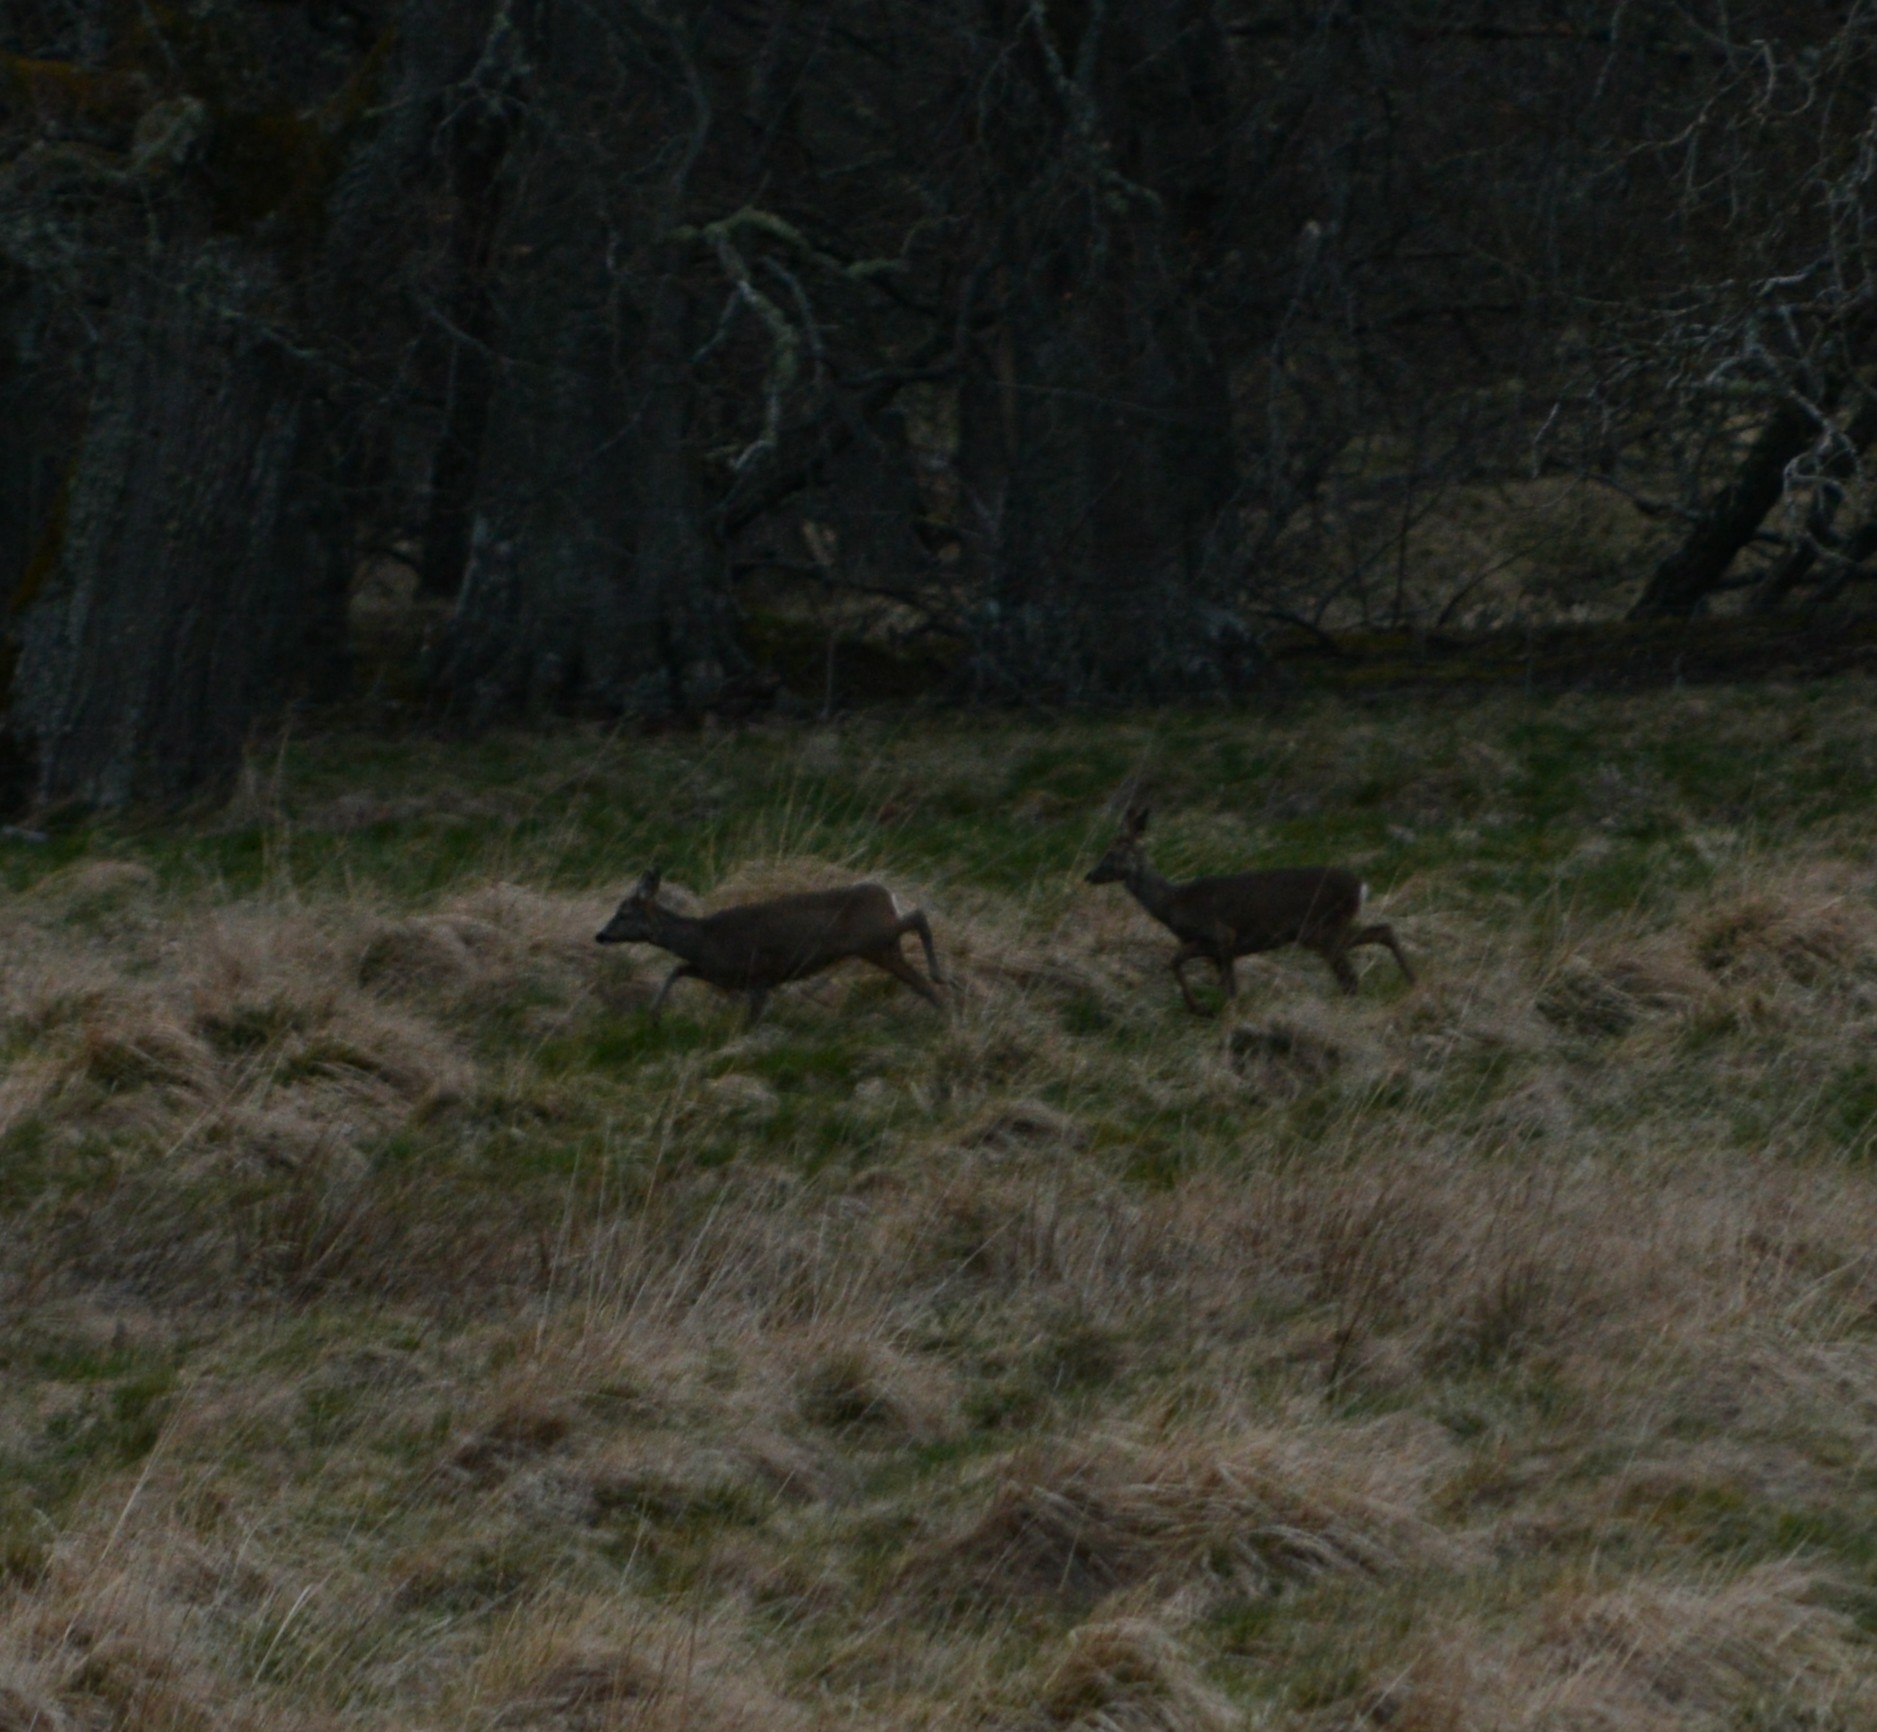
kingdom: Animalia
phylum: Chordata
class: Mammalia
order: Artiodactyla
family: Cervidae
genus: Capreolus
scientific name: Capreolus capreolus
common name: Western roe deer
